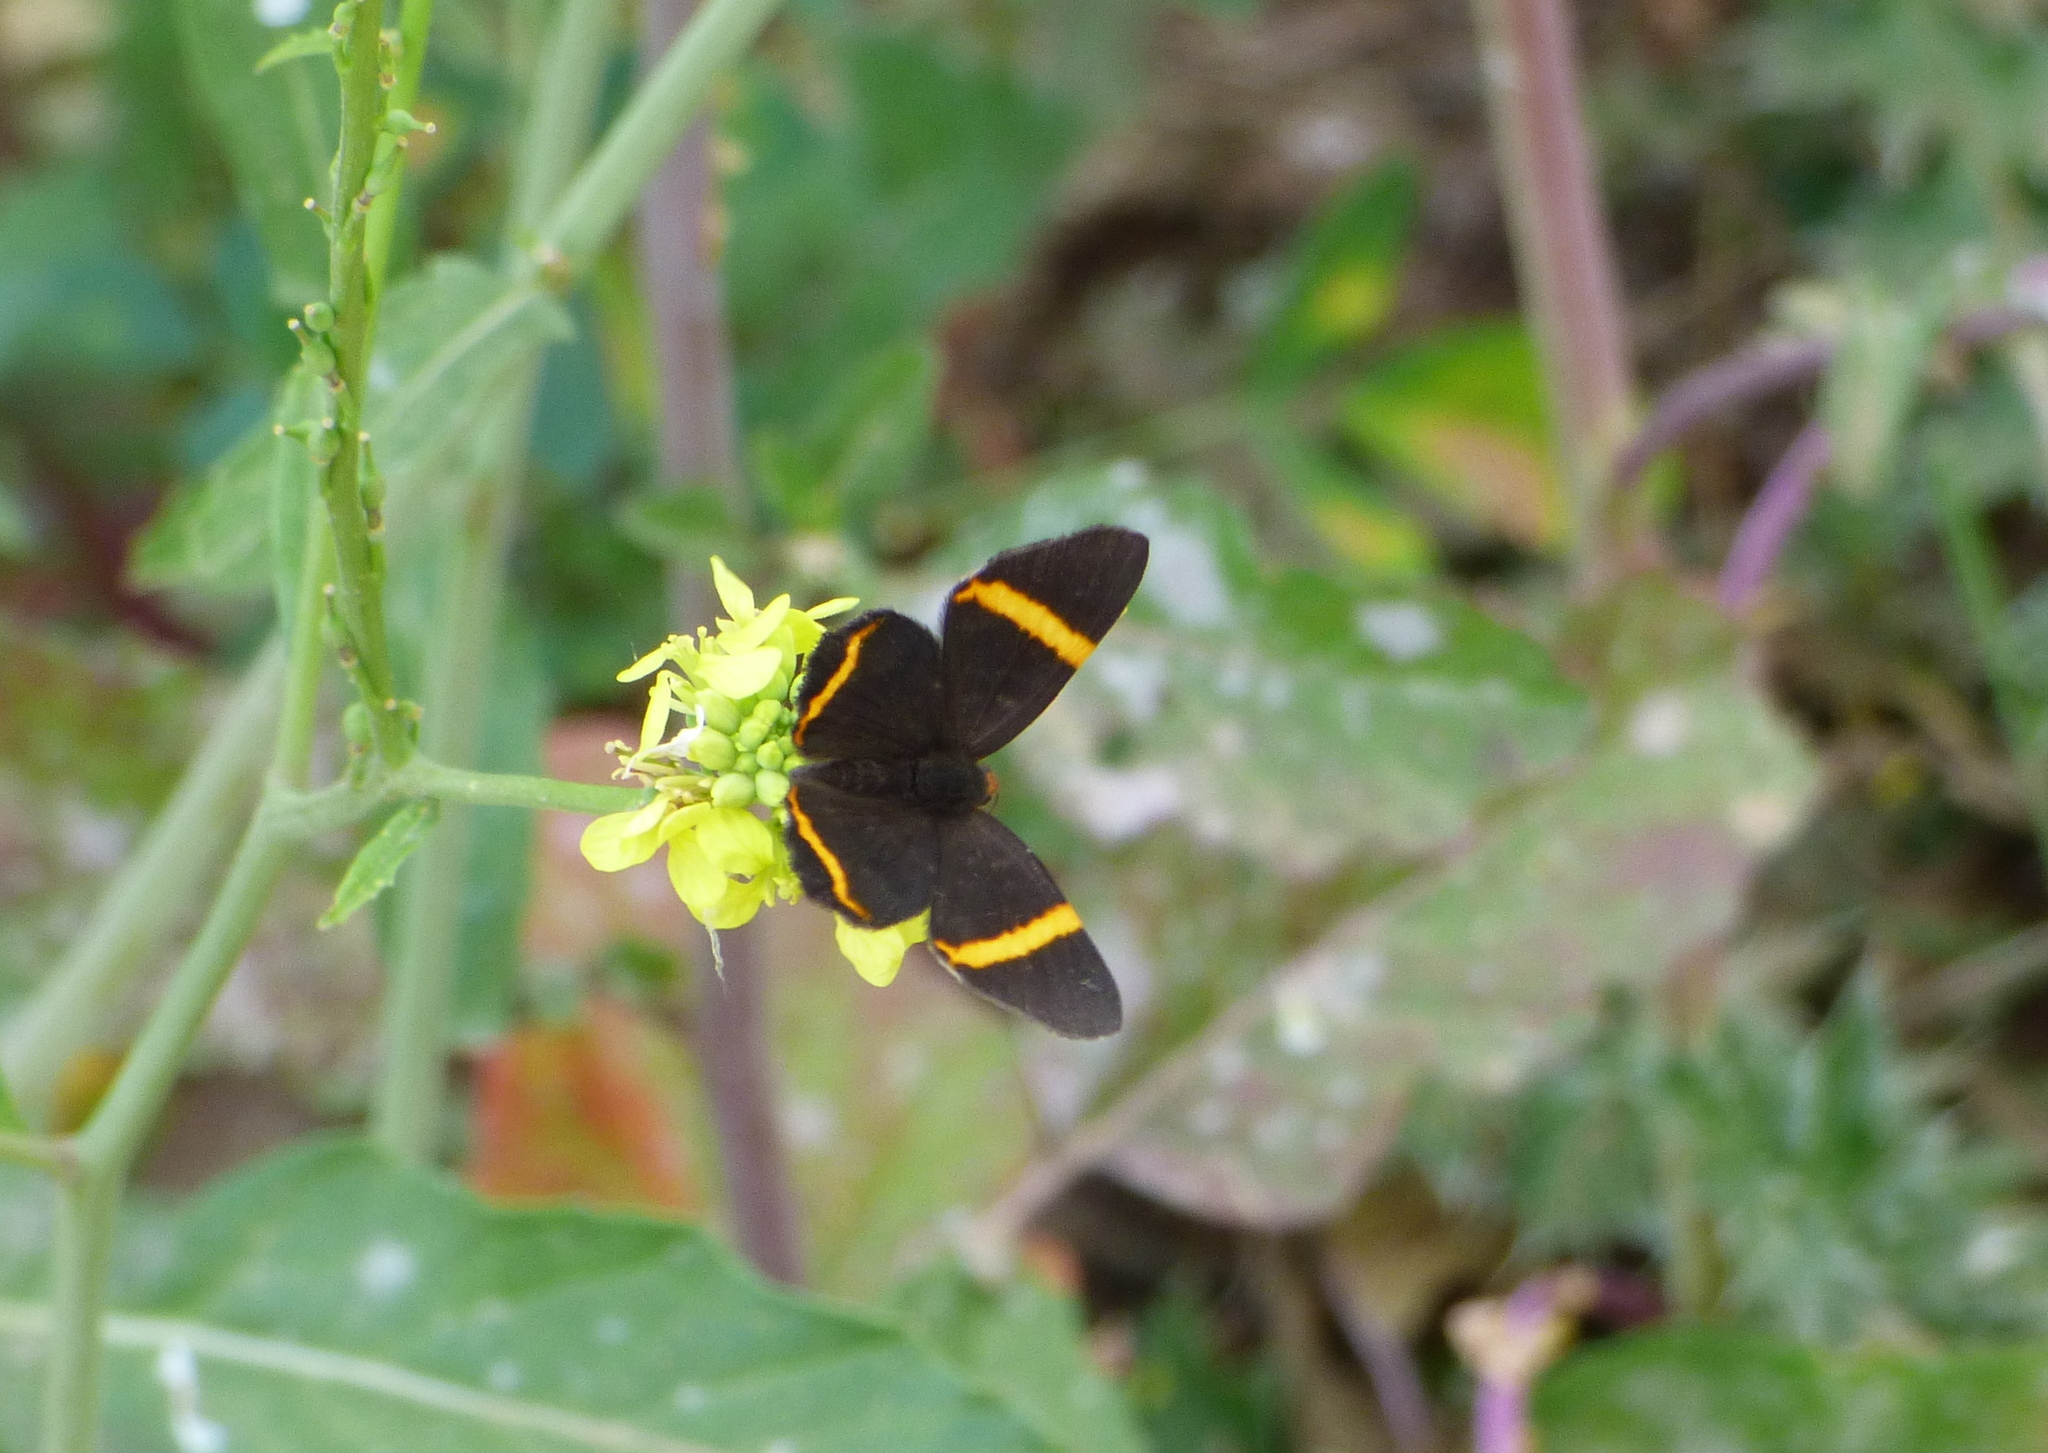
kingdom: Animalia
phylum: Arthropoda
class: Insecta
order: Lepidoptera
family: Riodinidae
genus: Riodina
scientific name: Riodina lysippoides
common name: Little dancer metalmark
